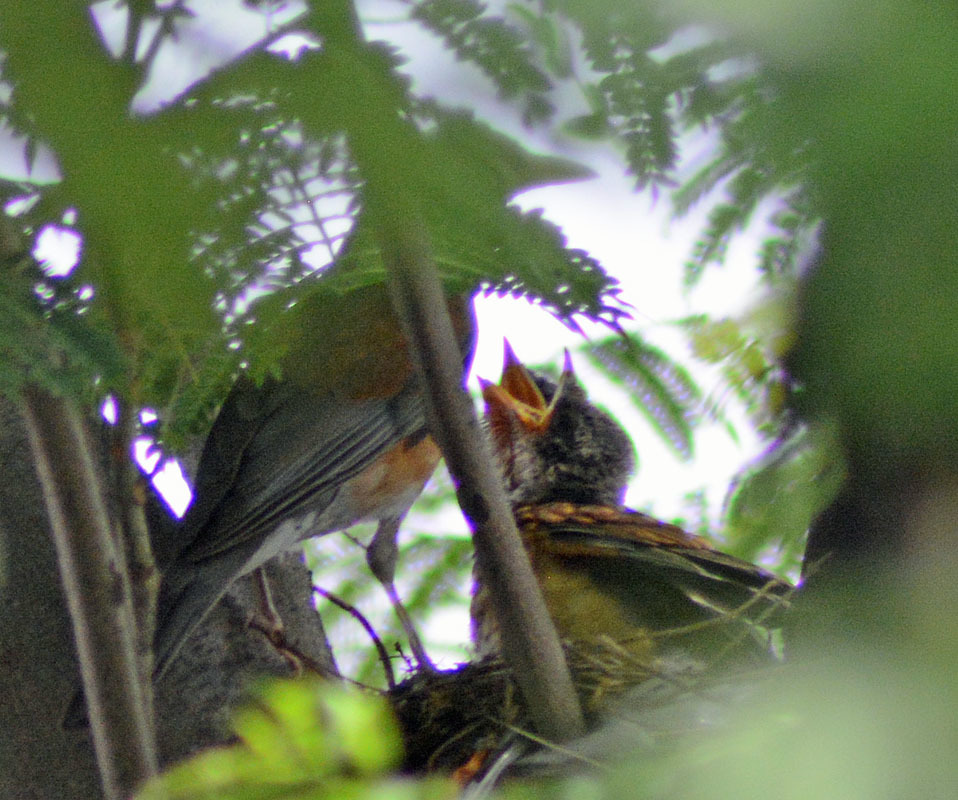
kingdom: Animalia
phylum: Chordata
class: Aves
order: Passeriformes
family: Turdidae
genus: Turdus
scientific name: Turdus rufopalliatus
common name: Rufous-backed robin
